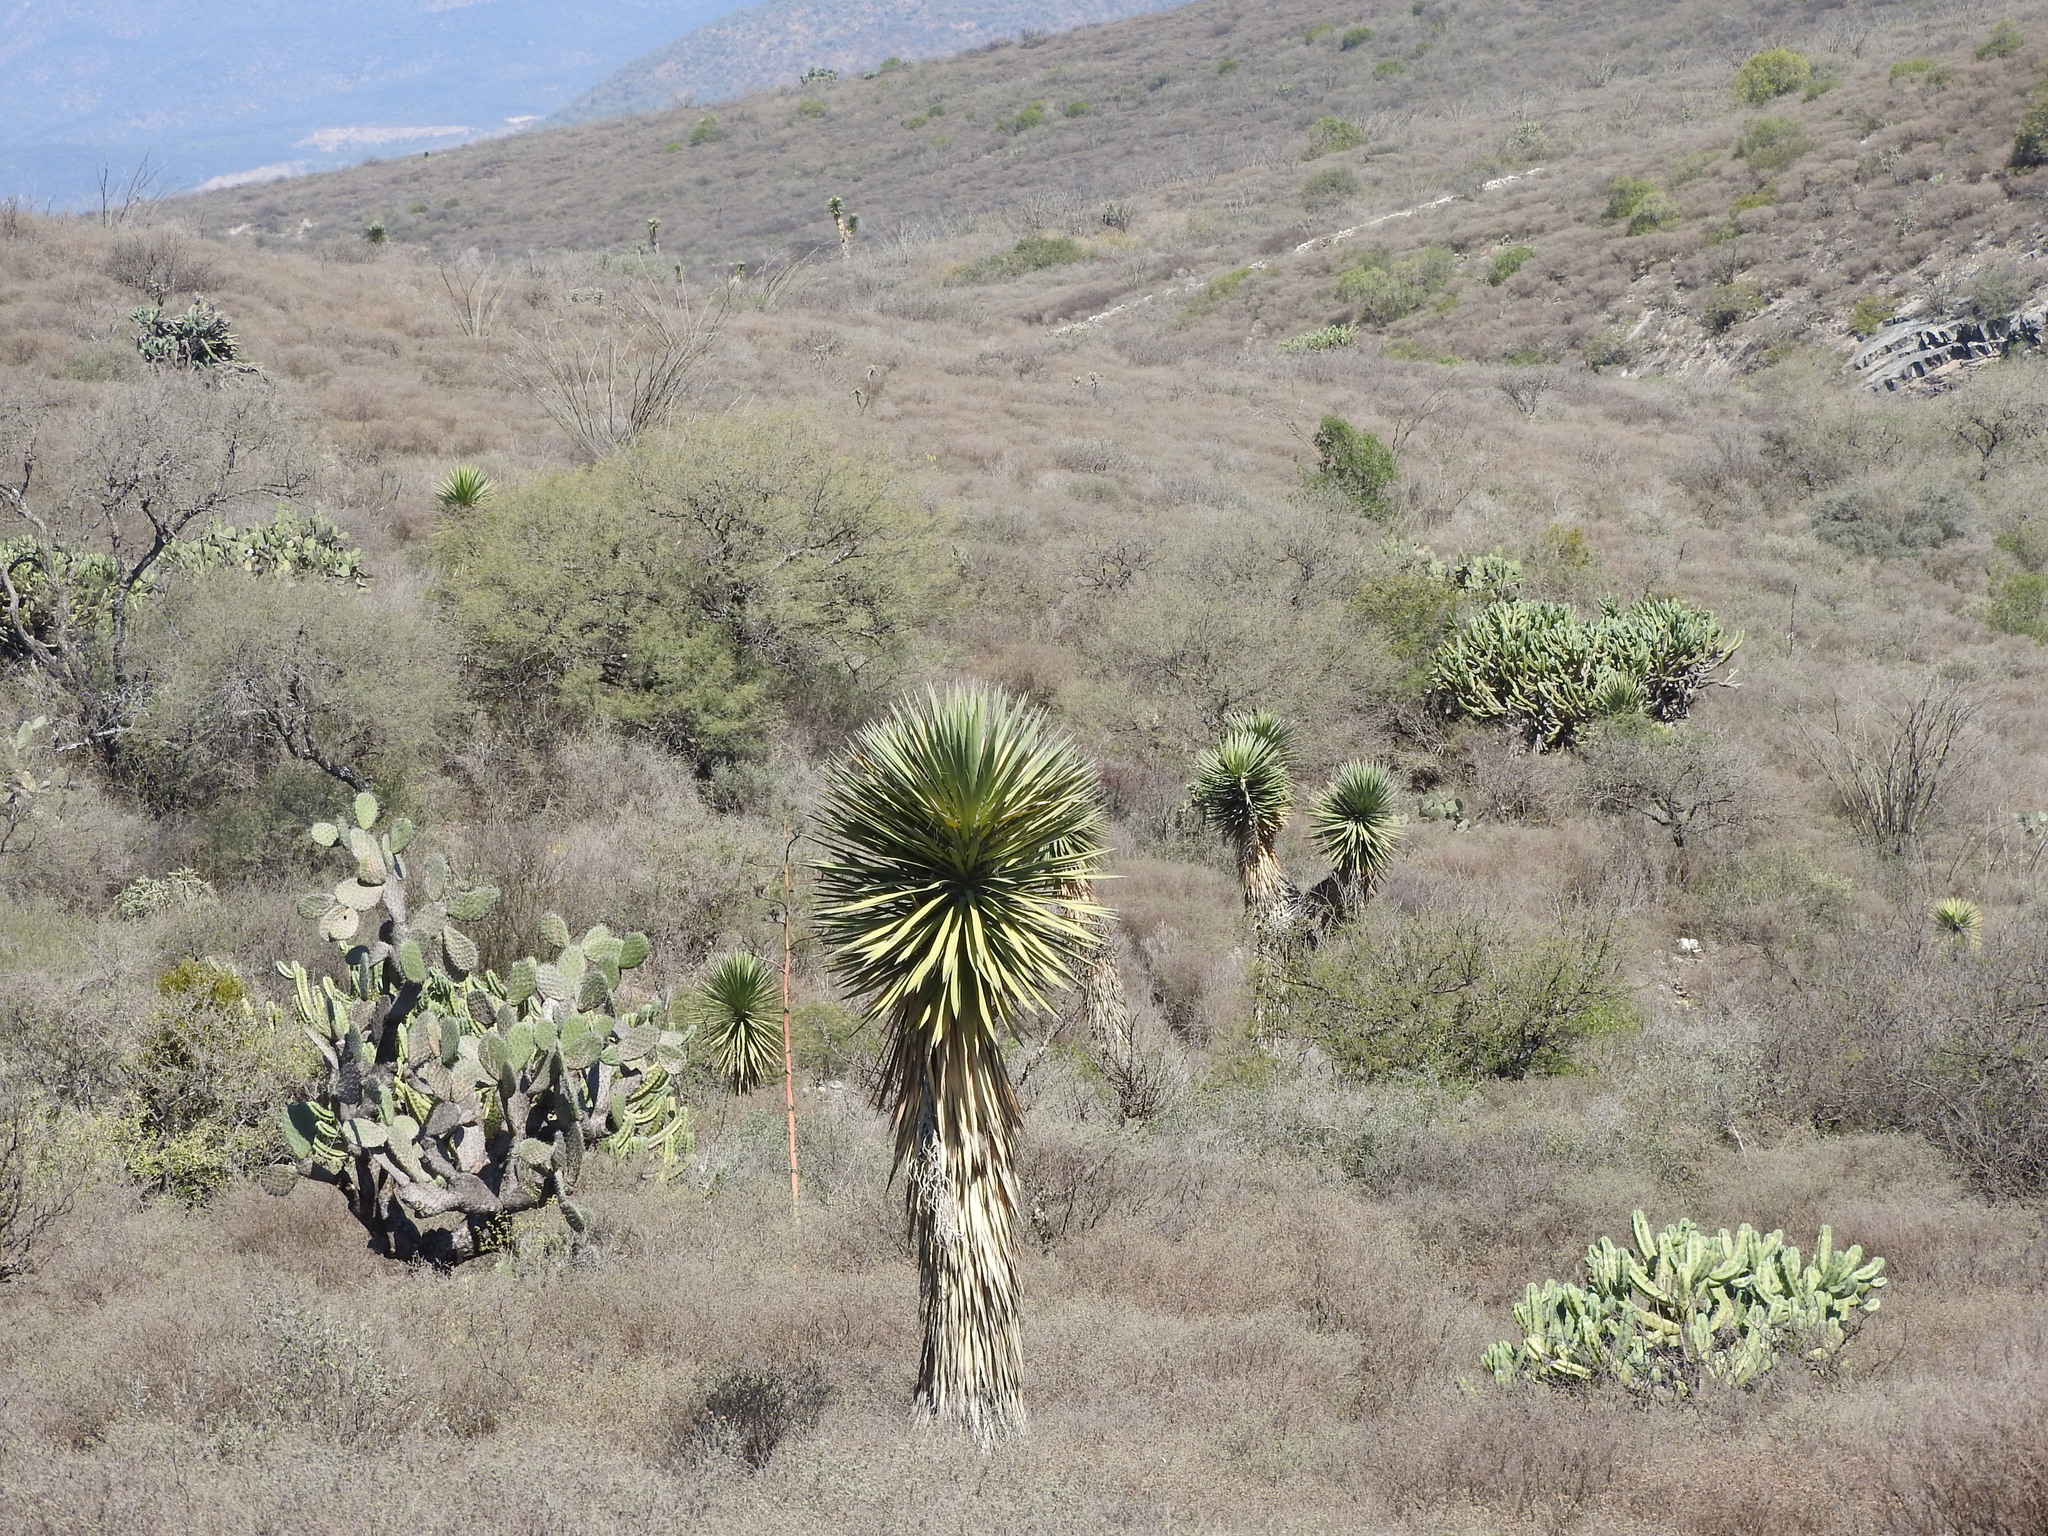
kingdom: Plantae
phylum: Tracheophyta
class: Liliopsida
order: Asparagales
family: Asparagaceae
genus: Yucca
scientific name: Yucca filifera
